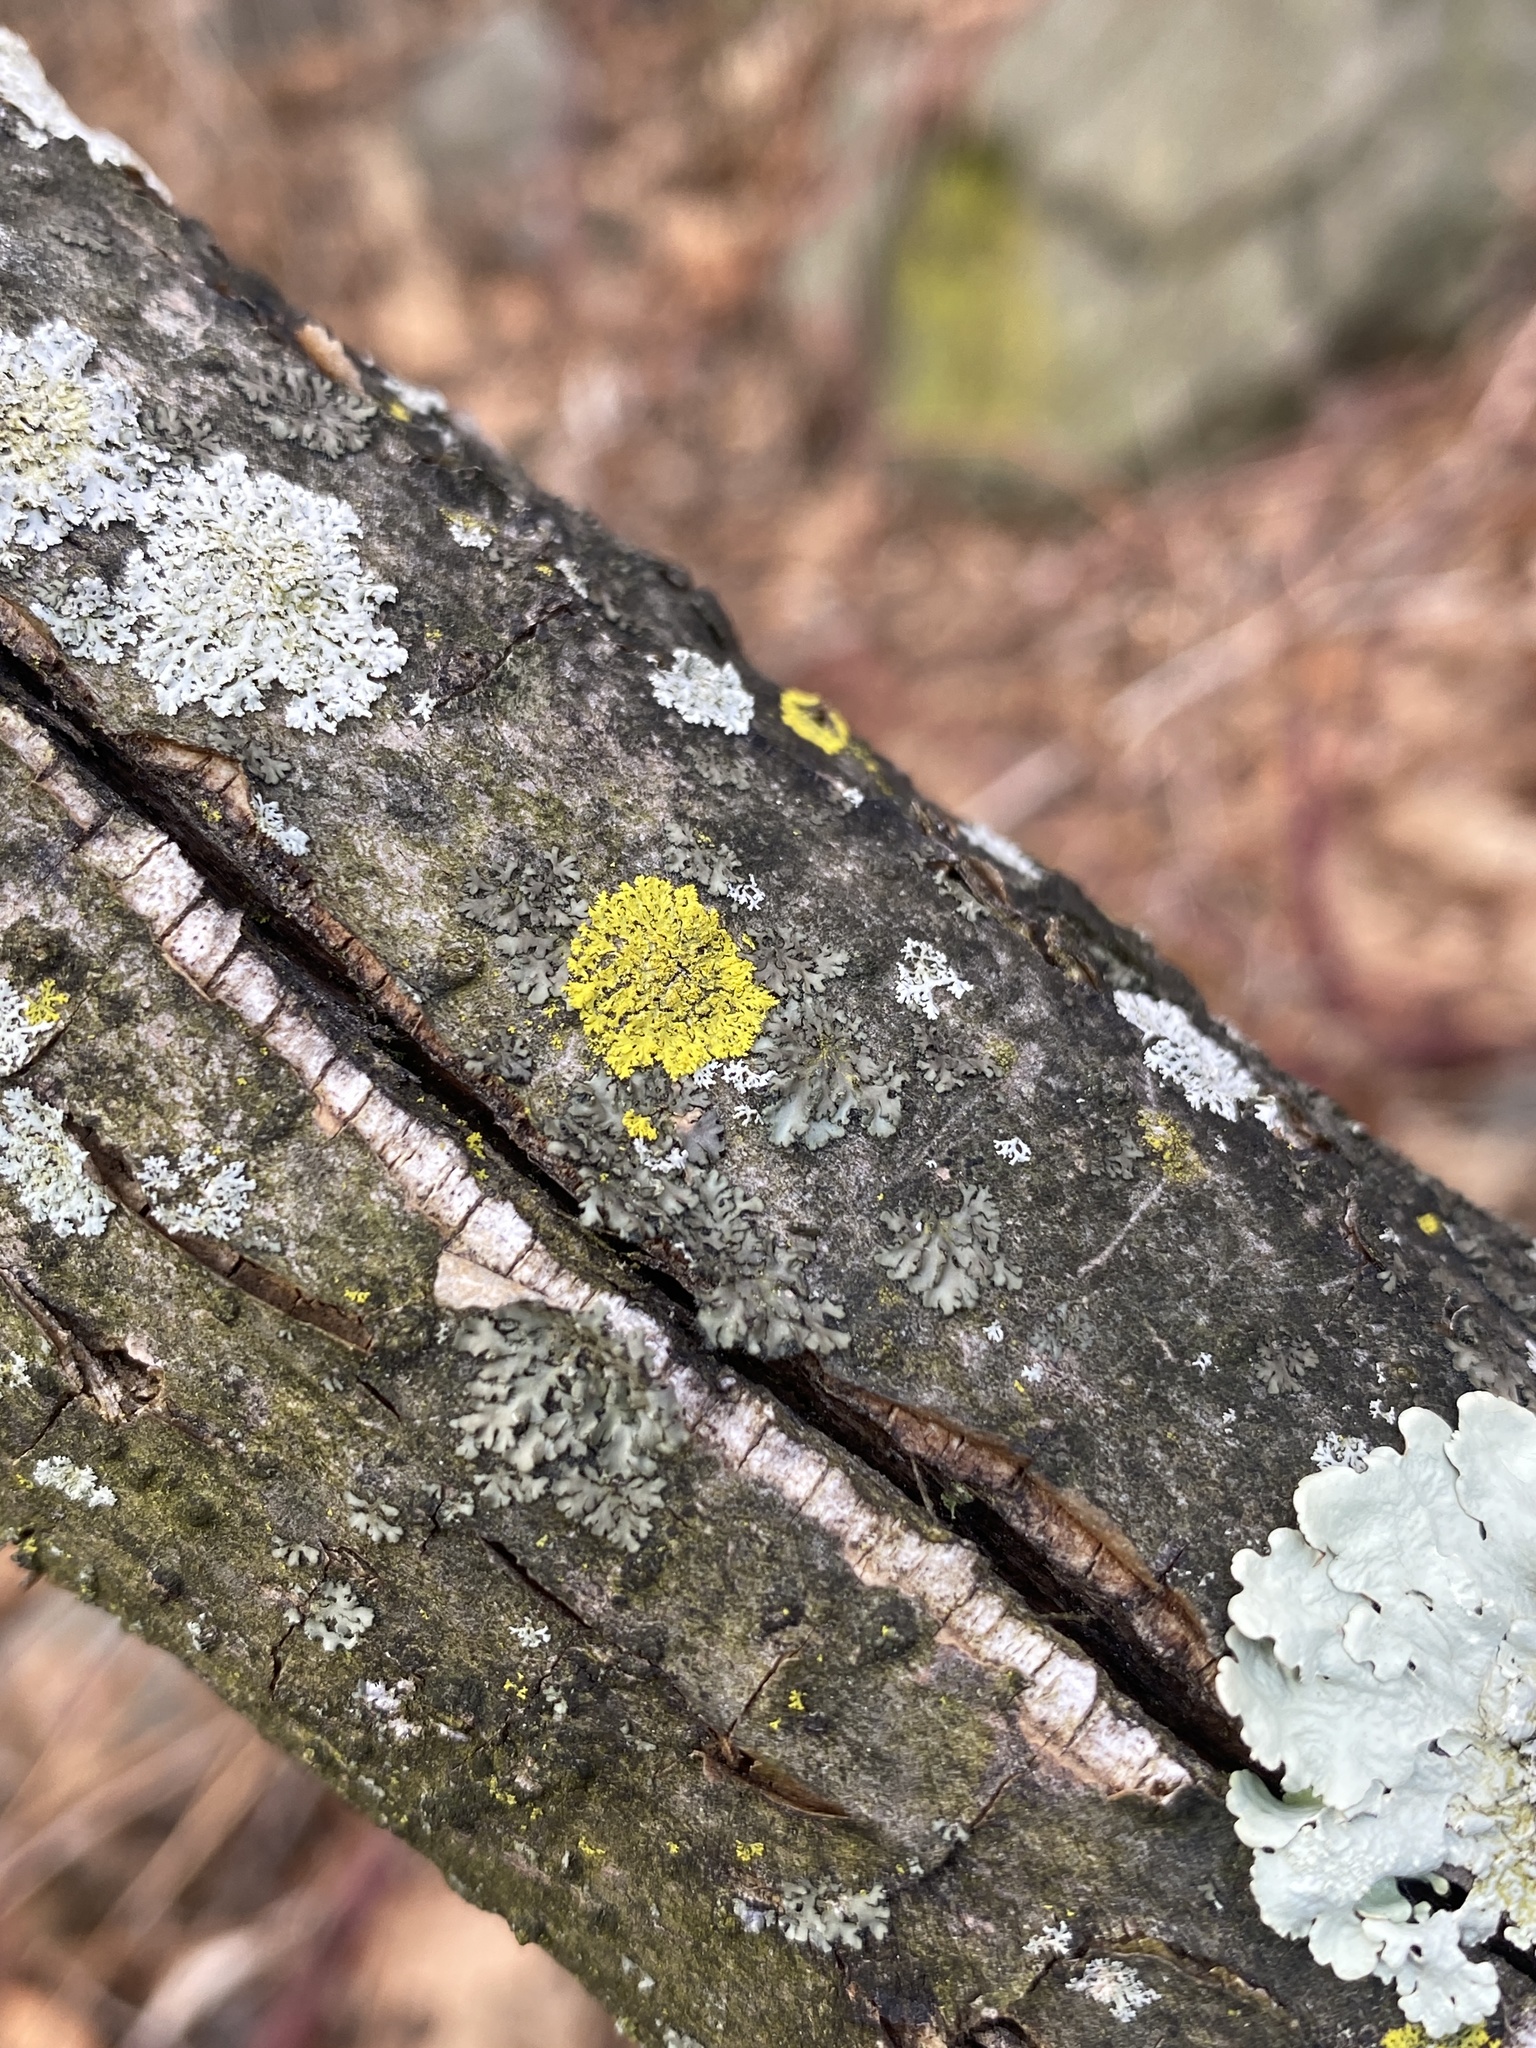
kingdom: Fungi
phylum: Ascomycota
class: Candelariomycetes
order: Candelariales
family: Candelariaceae
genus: Candelaria
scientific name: Candelaria concolor
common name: Candleflame lichen
